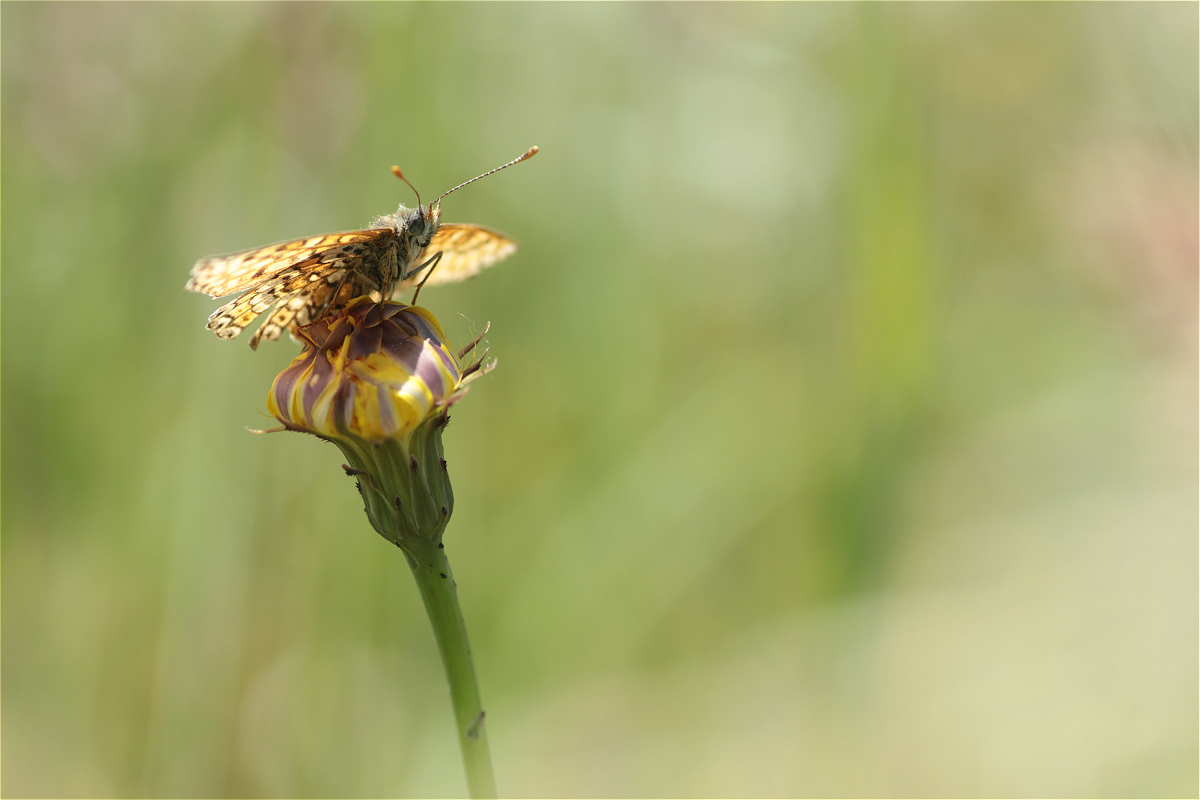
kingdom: Animalia
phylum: Arthropoda
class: Insecta
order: Lepidoptera
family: Nymphalidae
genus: Melitaea
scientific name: Melitaea cinxia
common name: Glanville fritillary
